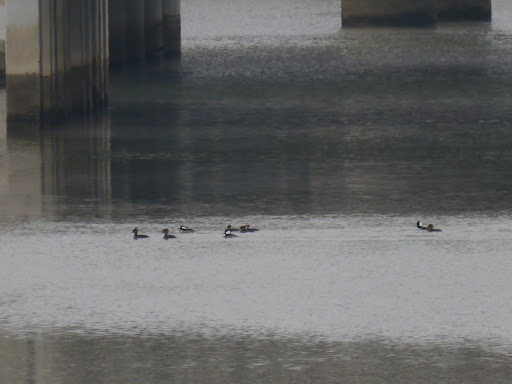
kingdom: Animalia
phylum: Chordata
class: Aves
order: Anseriformes
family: Anatidae
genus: Lophodytes
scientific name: Lophodytes cucullatus
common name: Hooded merganser
